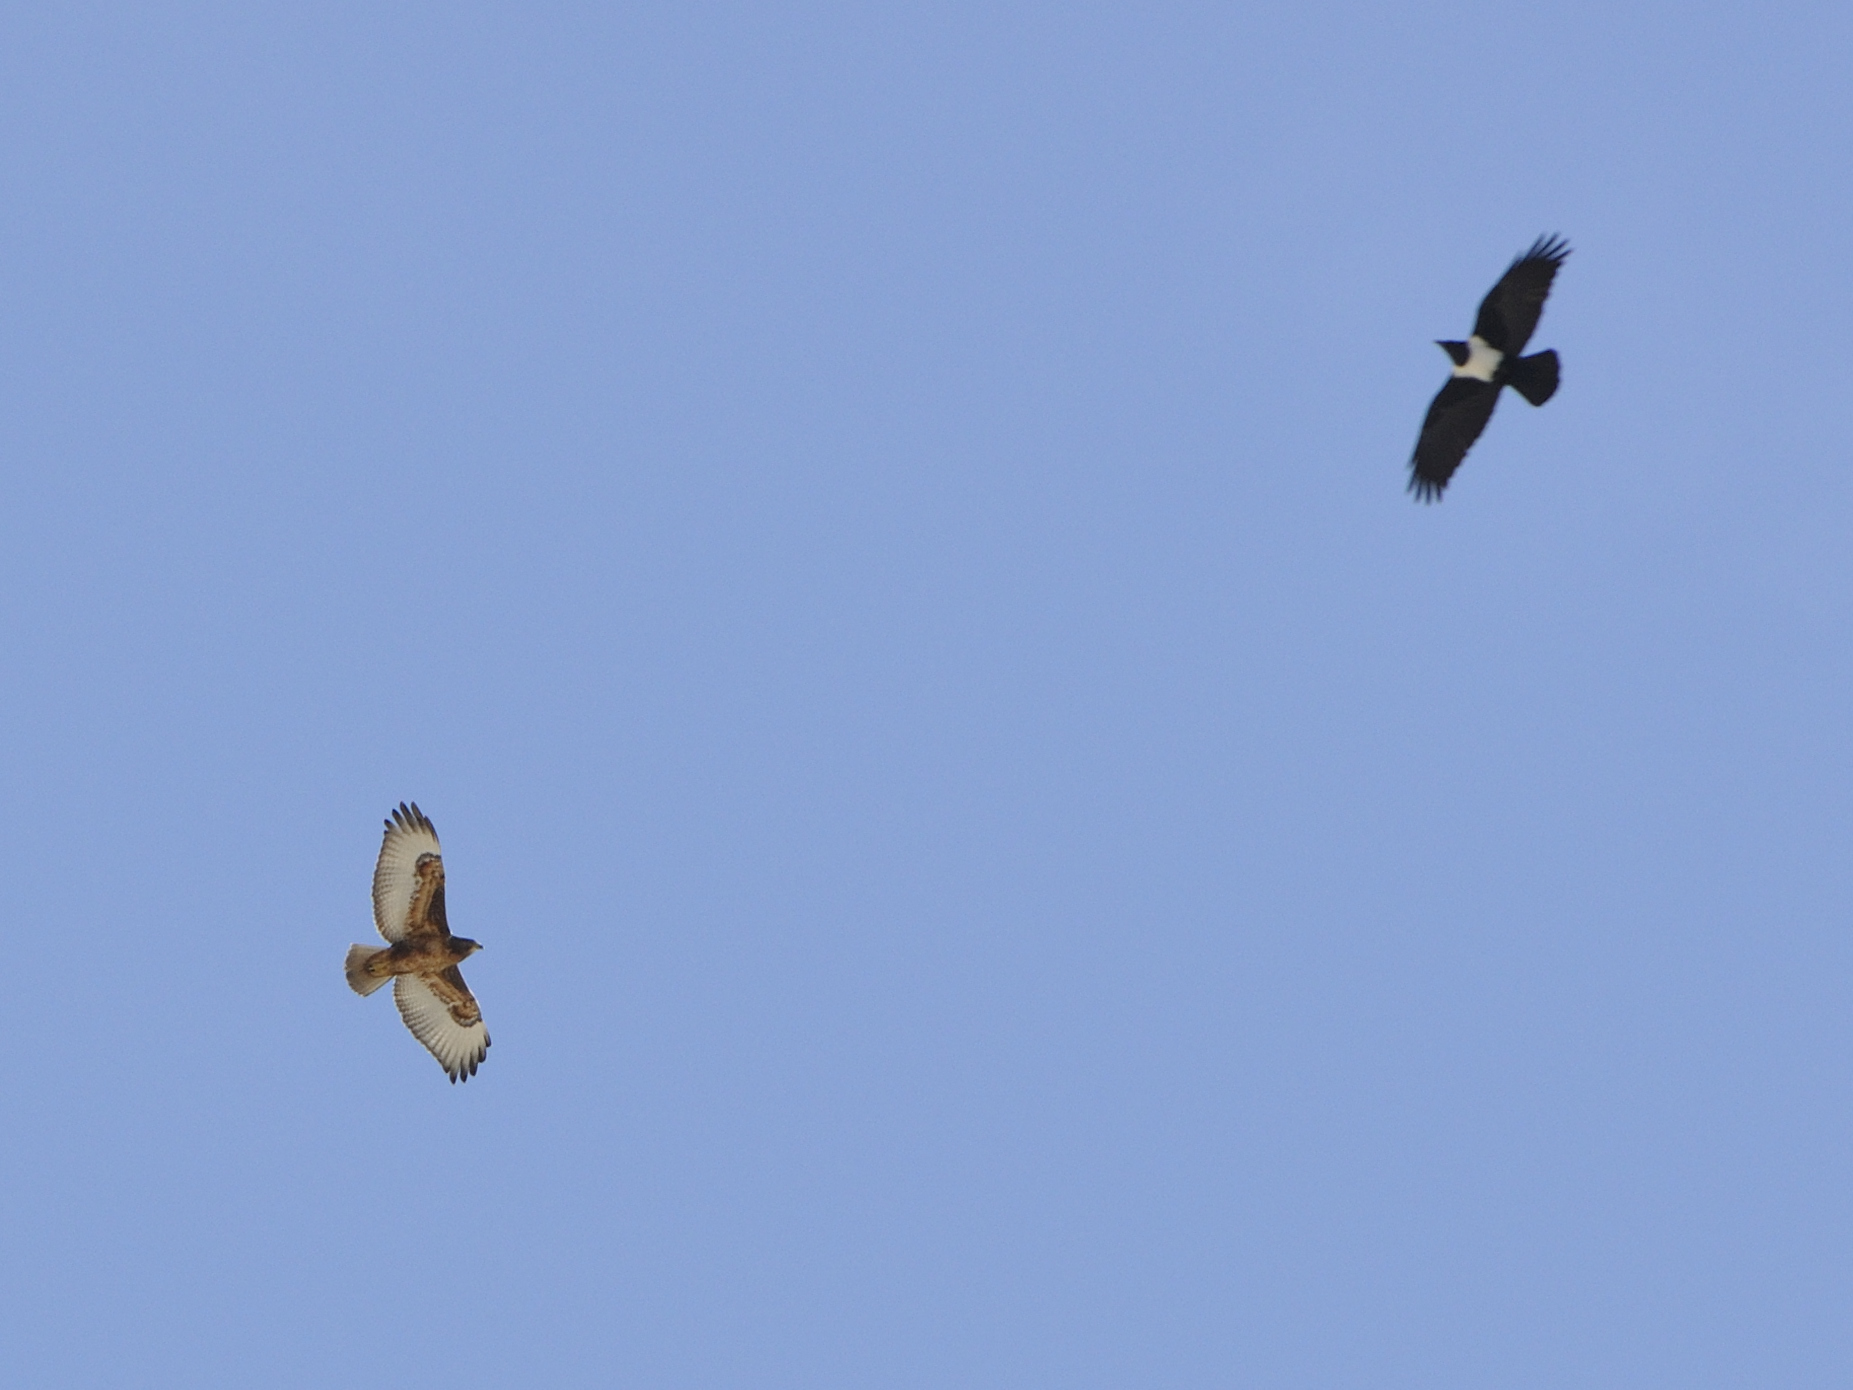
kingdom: Animalia
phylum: Chordata
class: Aves
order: Accipitriformes
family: Accipitridae
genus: Buteo
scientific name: Buteo rufofuscus
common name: Jackal buzzard
